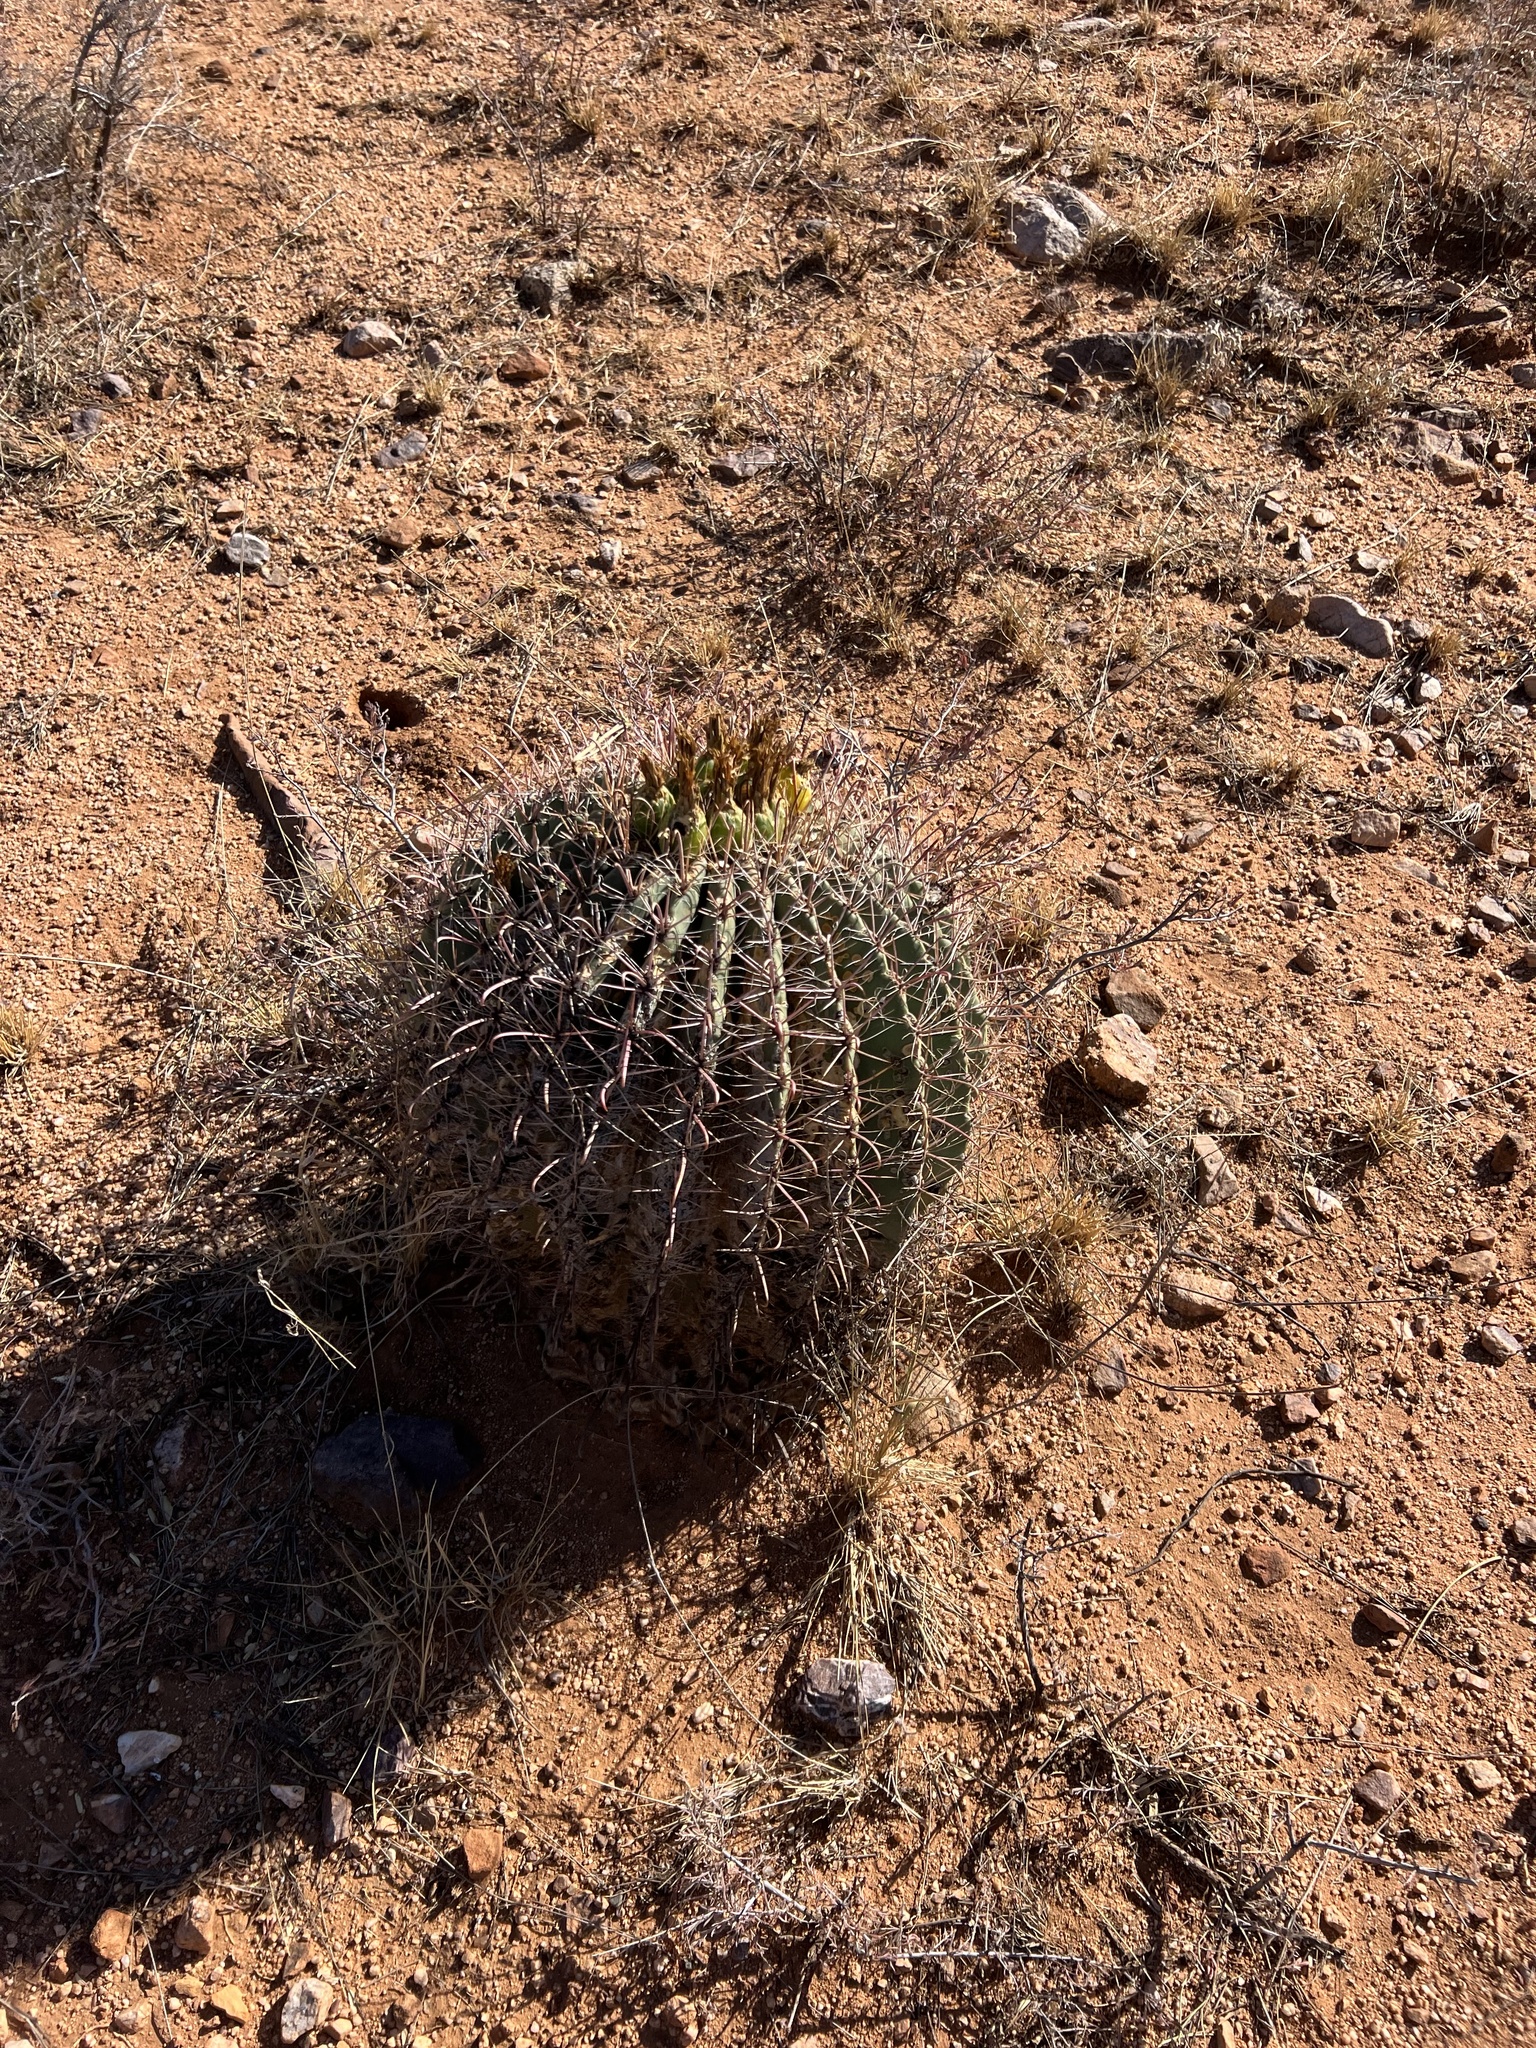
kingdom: Plantae
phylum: Tracheophyta
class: Magnoliopsida
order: Caryophyllales
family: Cactaceae
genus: Ferocactus
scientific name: Ferocactus wislizeni
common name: Candy barrel cactus
